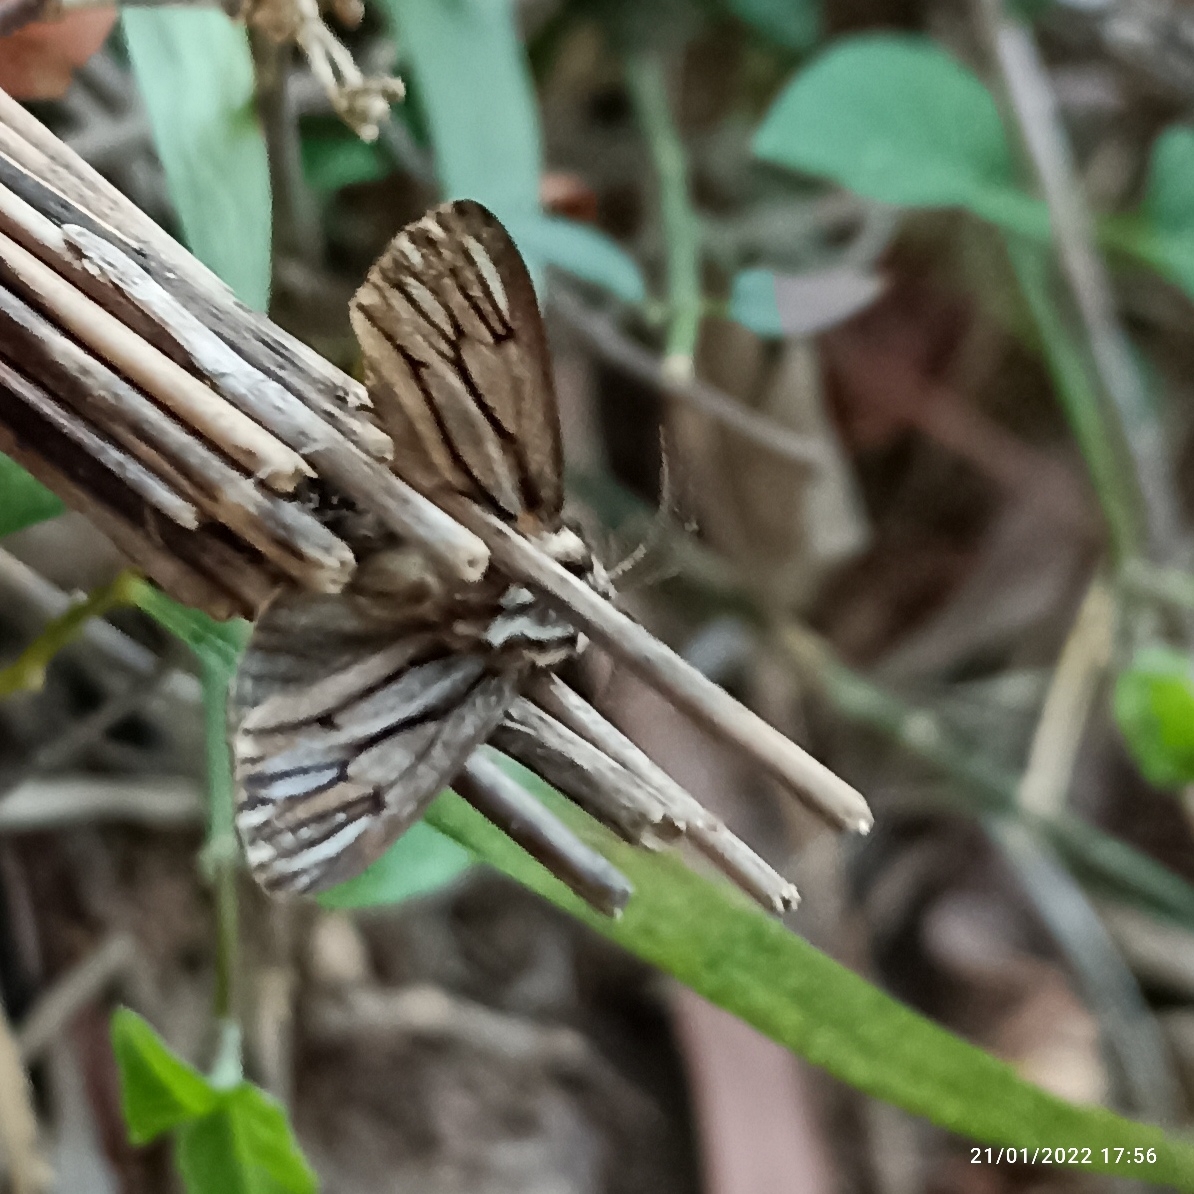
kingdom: Animalia
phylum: Arthropoda
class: Insecta
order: Lepidoptera
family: Psychidae
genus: Eumeta
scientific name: Eumeta cramerii
